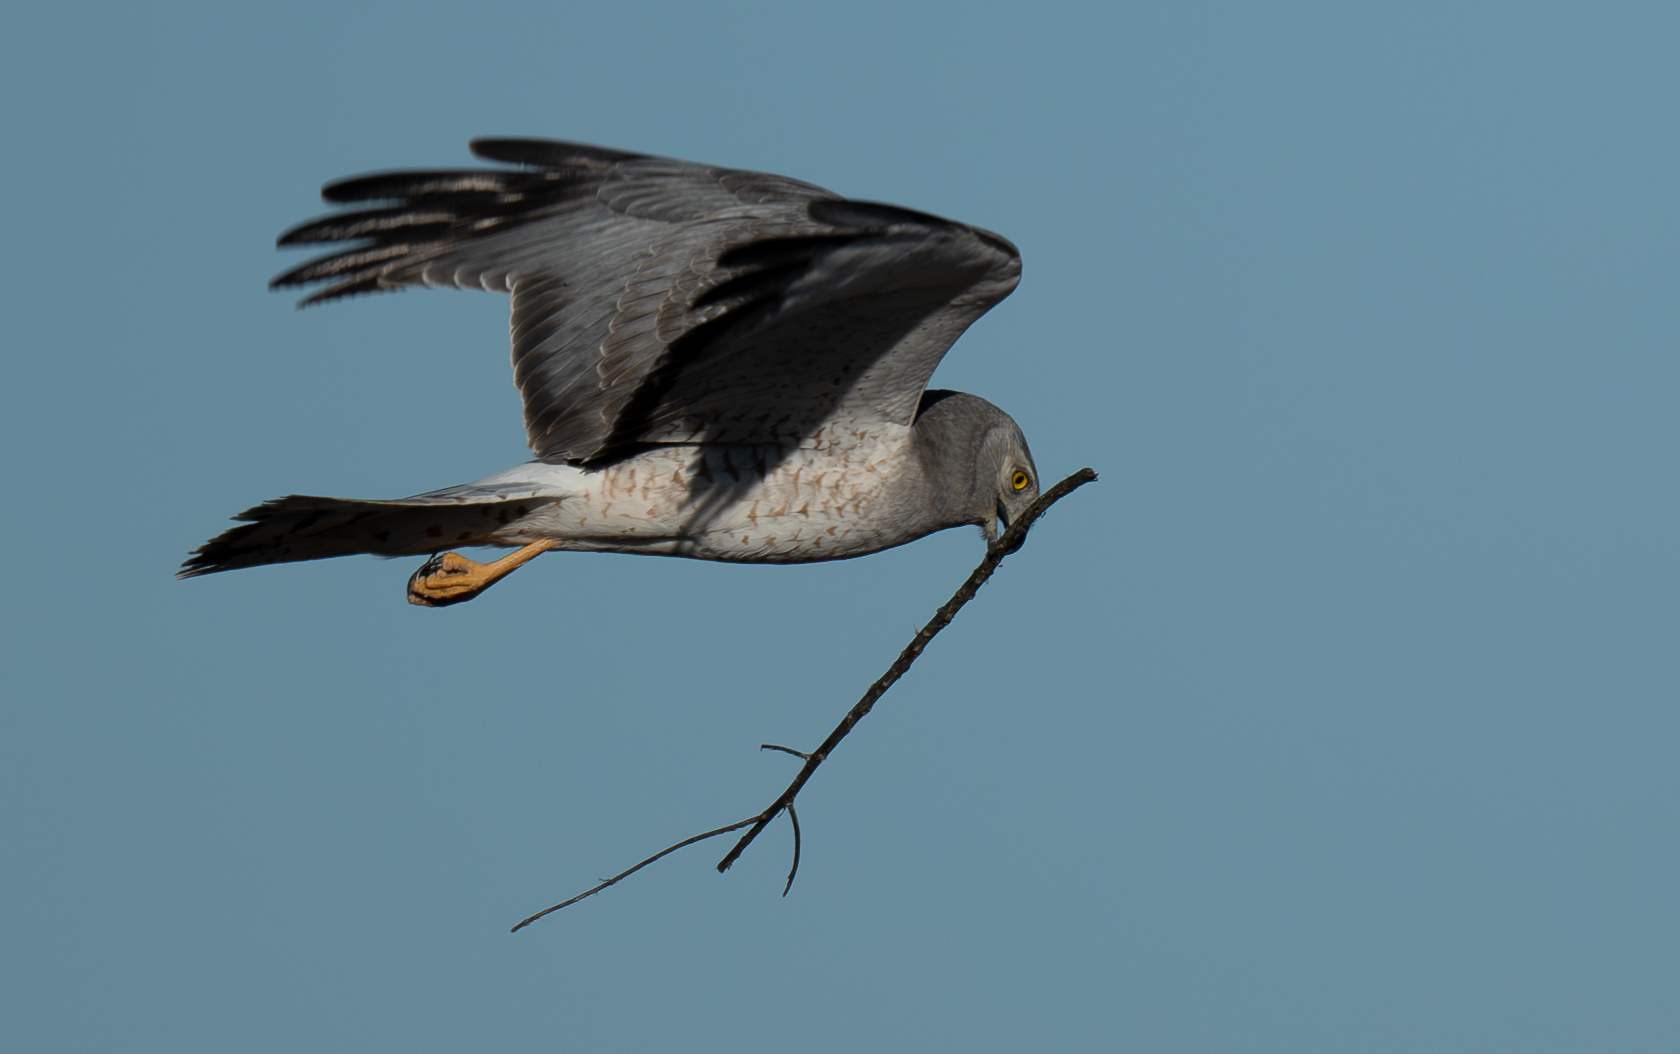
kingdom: Animalia
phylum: Chordata
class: Aves
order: Accipitriformes
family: Accipitridae
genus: Circus
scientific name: Circus cyaneus
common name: Hen harrier
